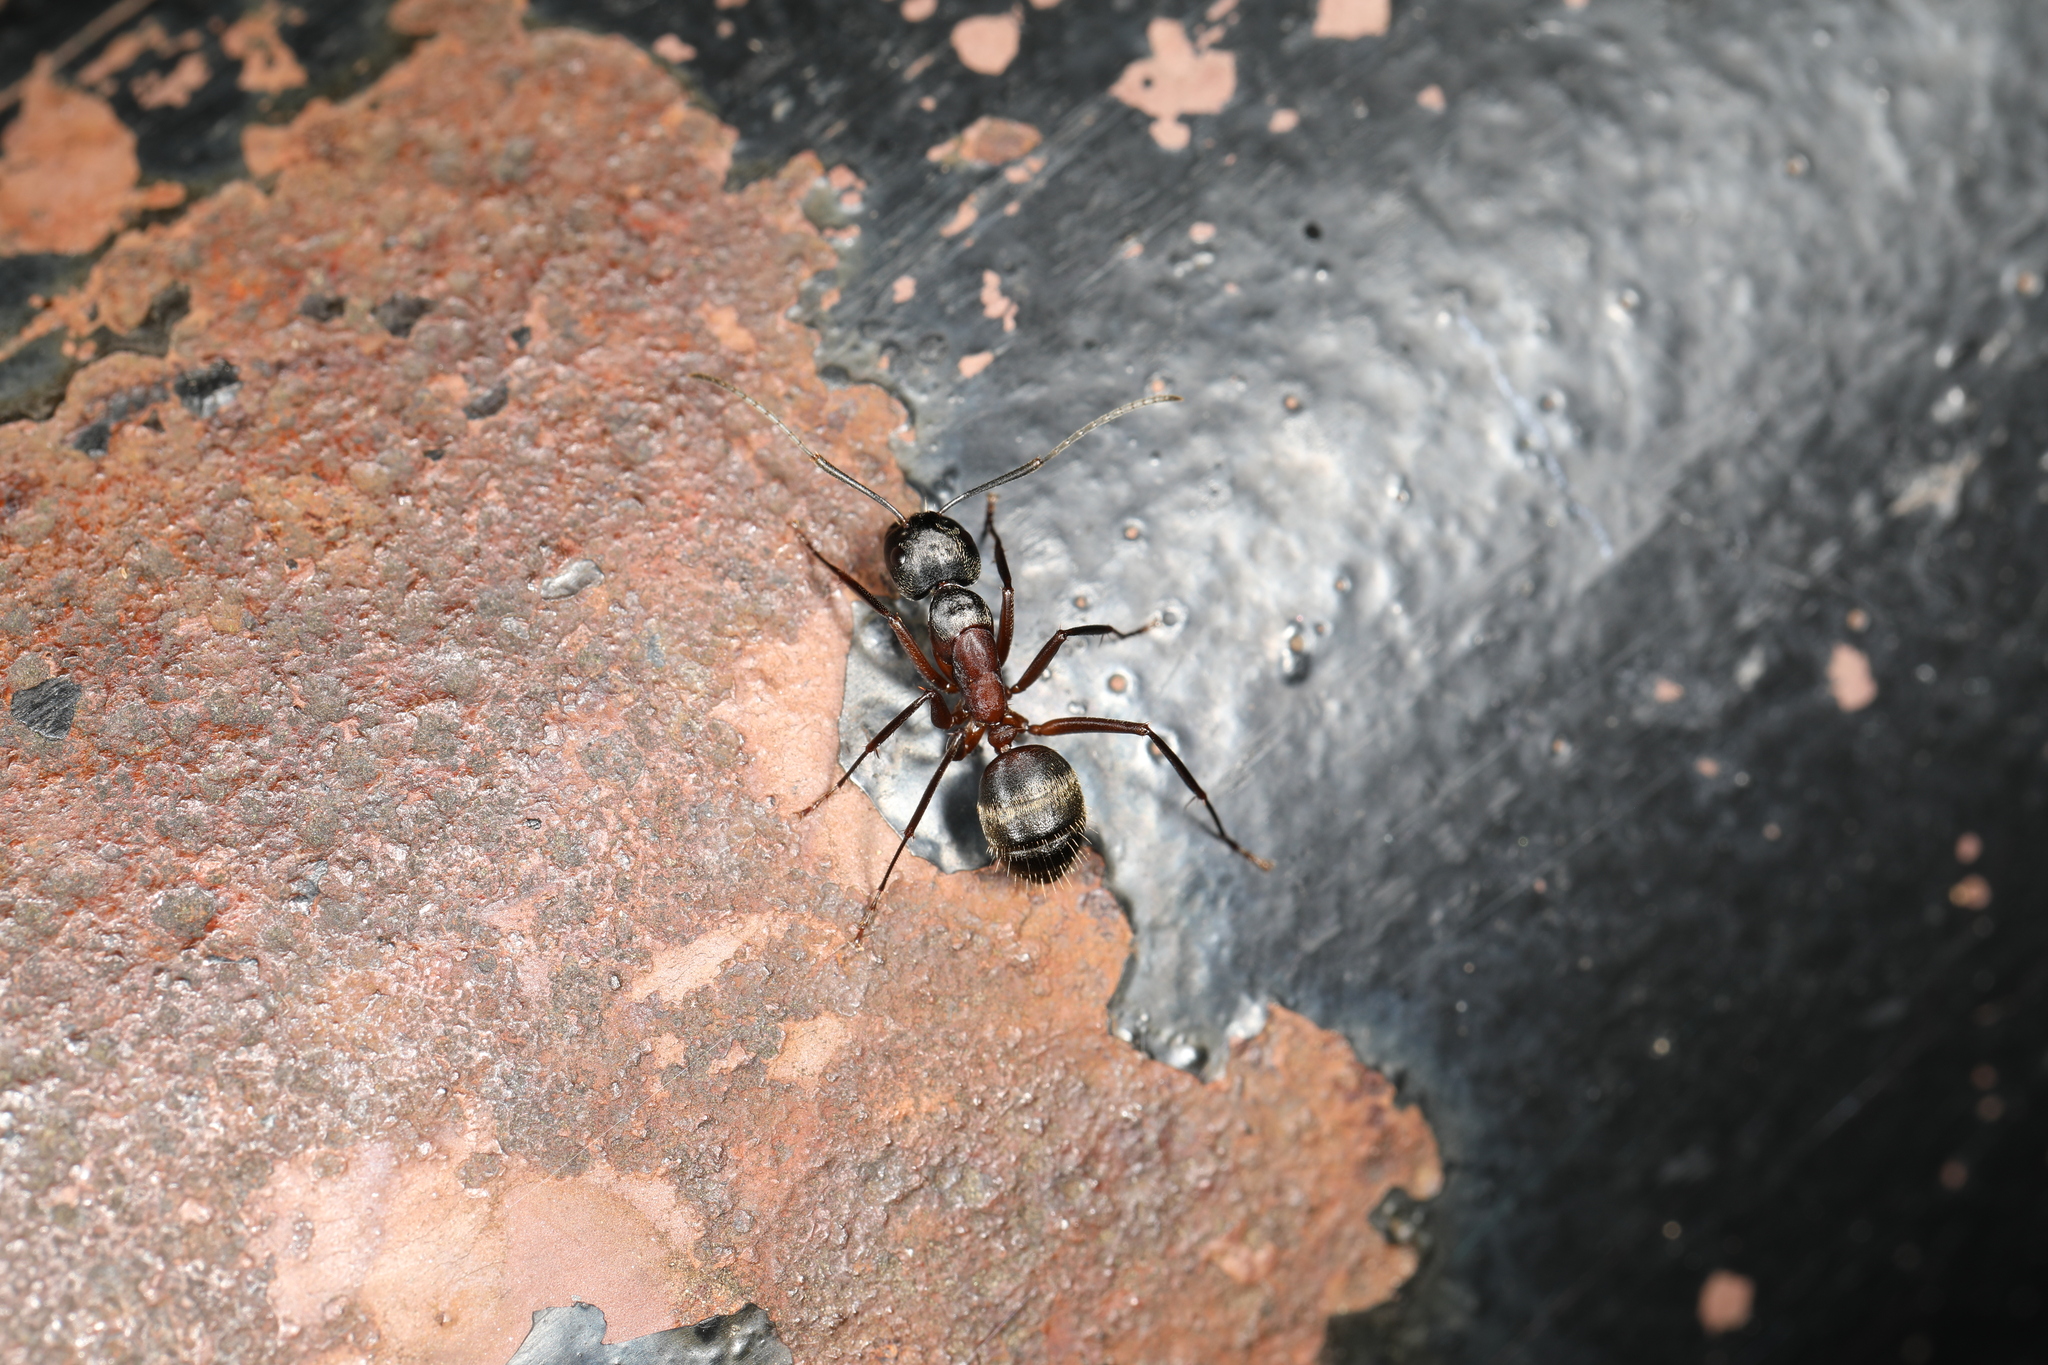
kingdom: Animalia
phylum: Arthropoda
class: Insecta
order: Hymenoptera
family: Formicidae
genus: Camponotus
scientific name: Camponotus chromaiodes
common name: Red carpenter ant
